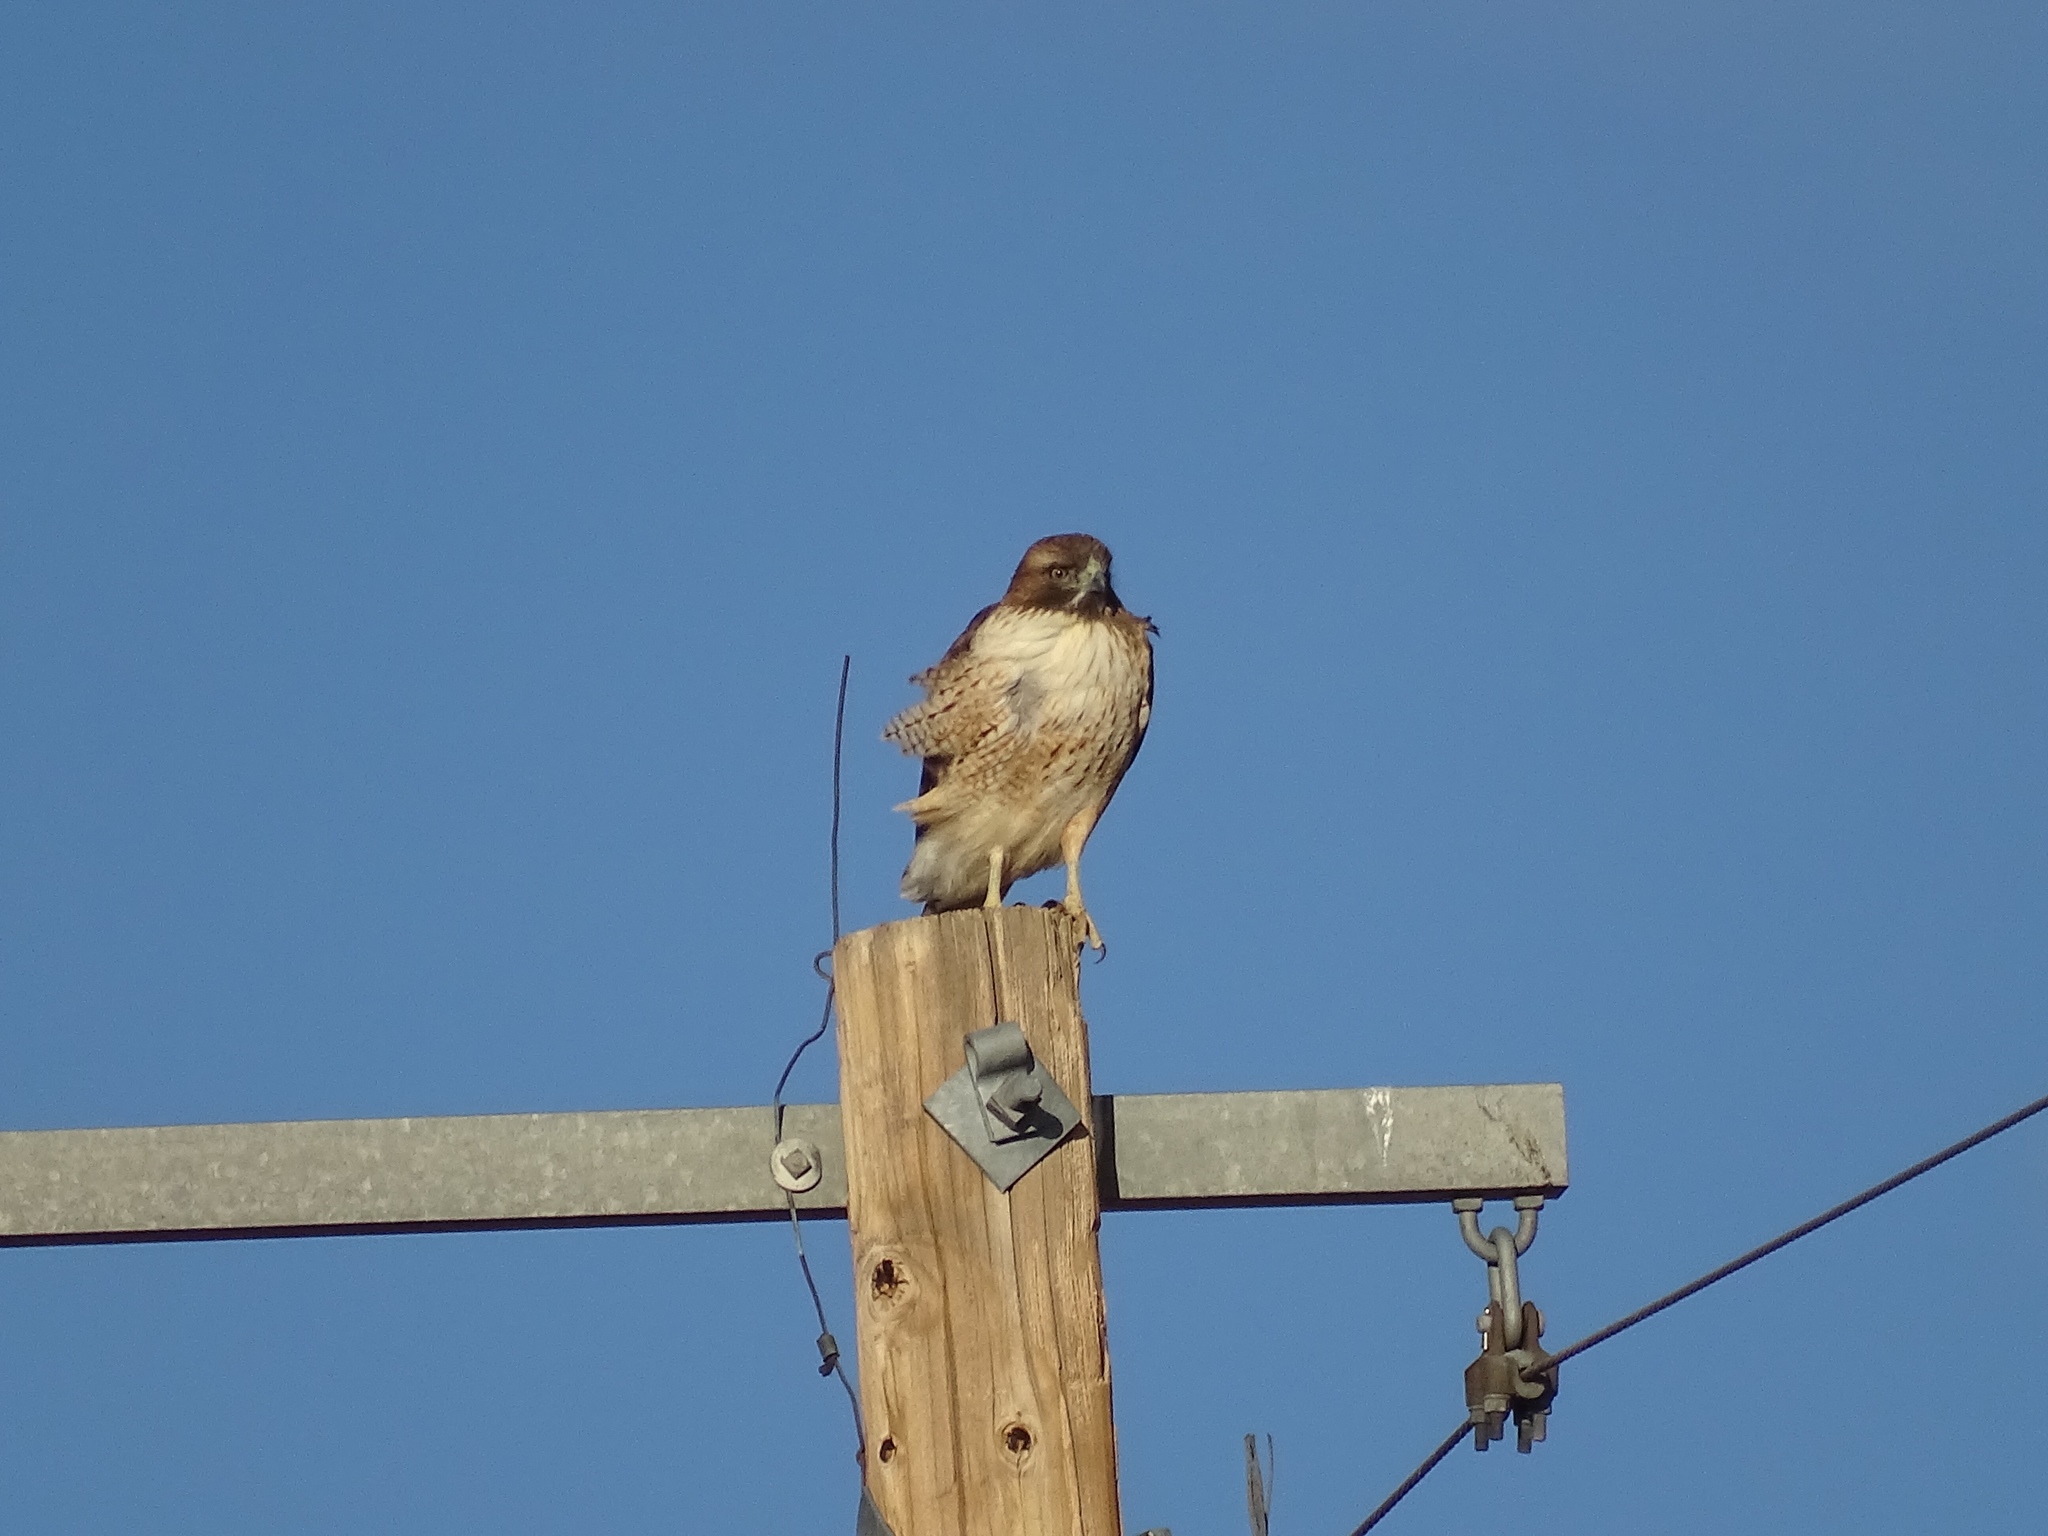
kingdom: Animalia
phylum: Chordata
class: Aves
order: Accipitriformes
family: Accipitridae
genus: Buteo
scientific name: Buteo jamaicensis
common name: Red-tailed hawk
